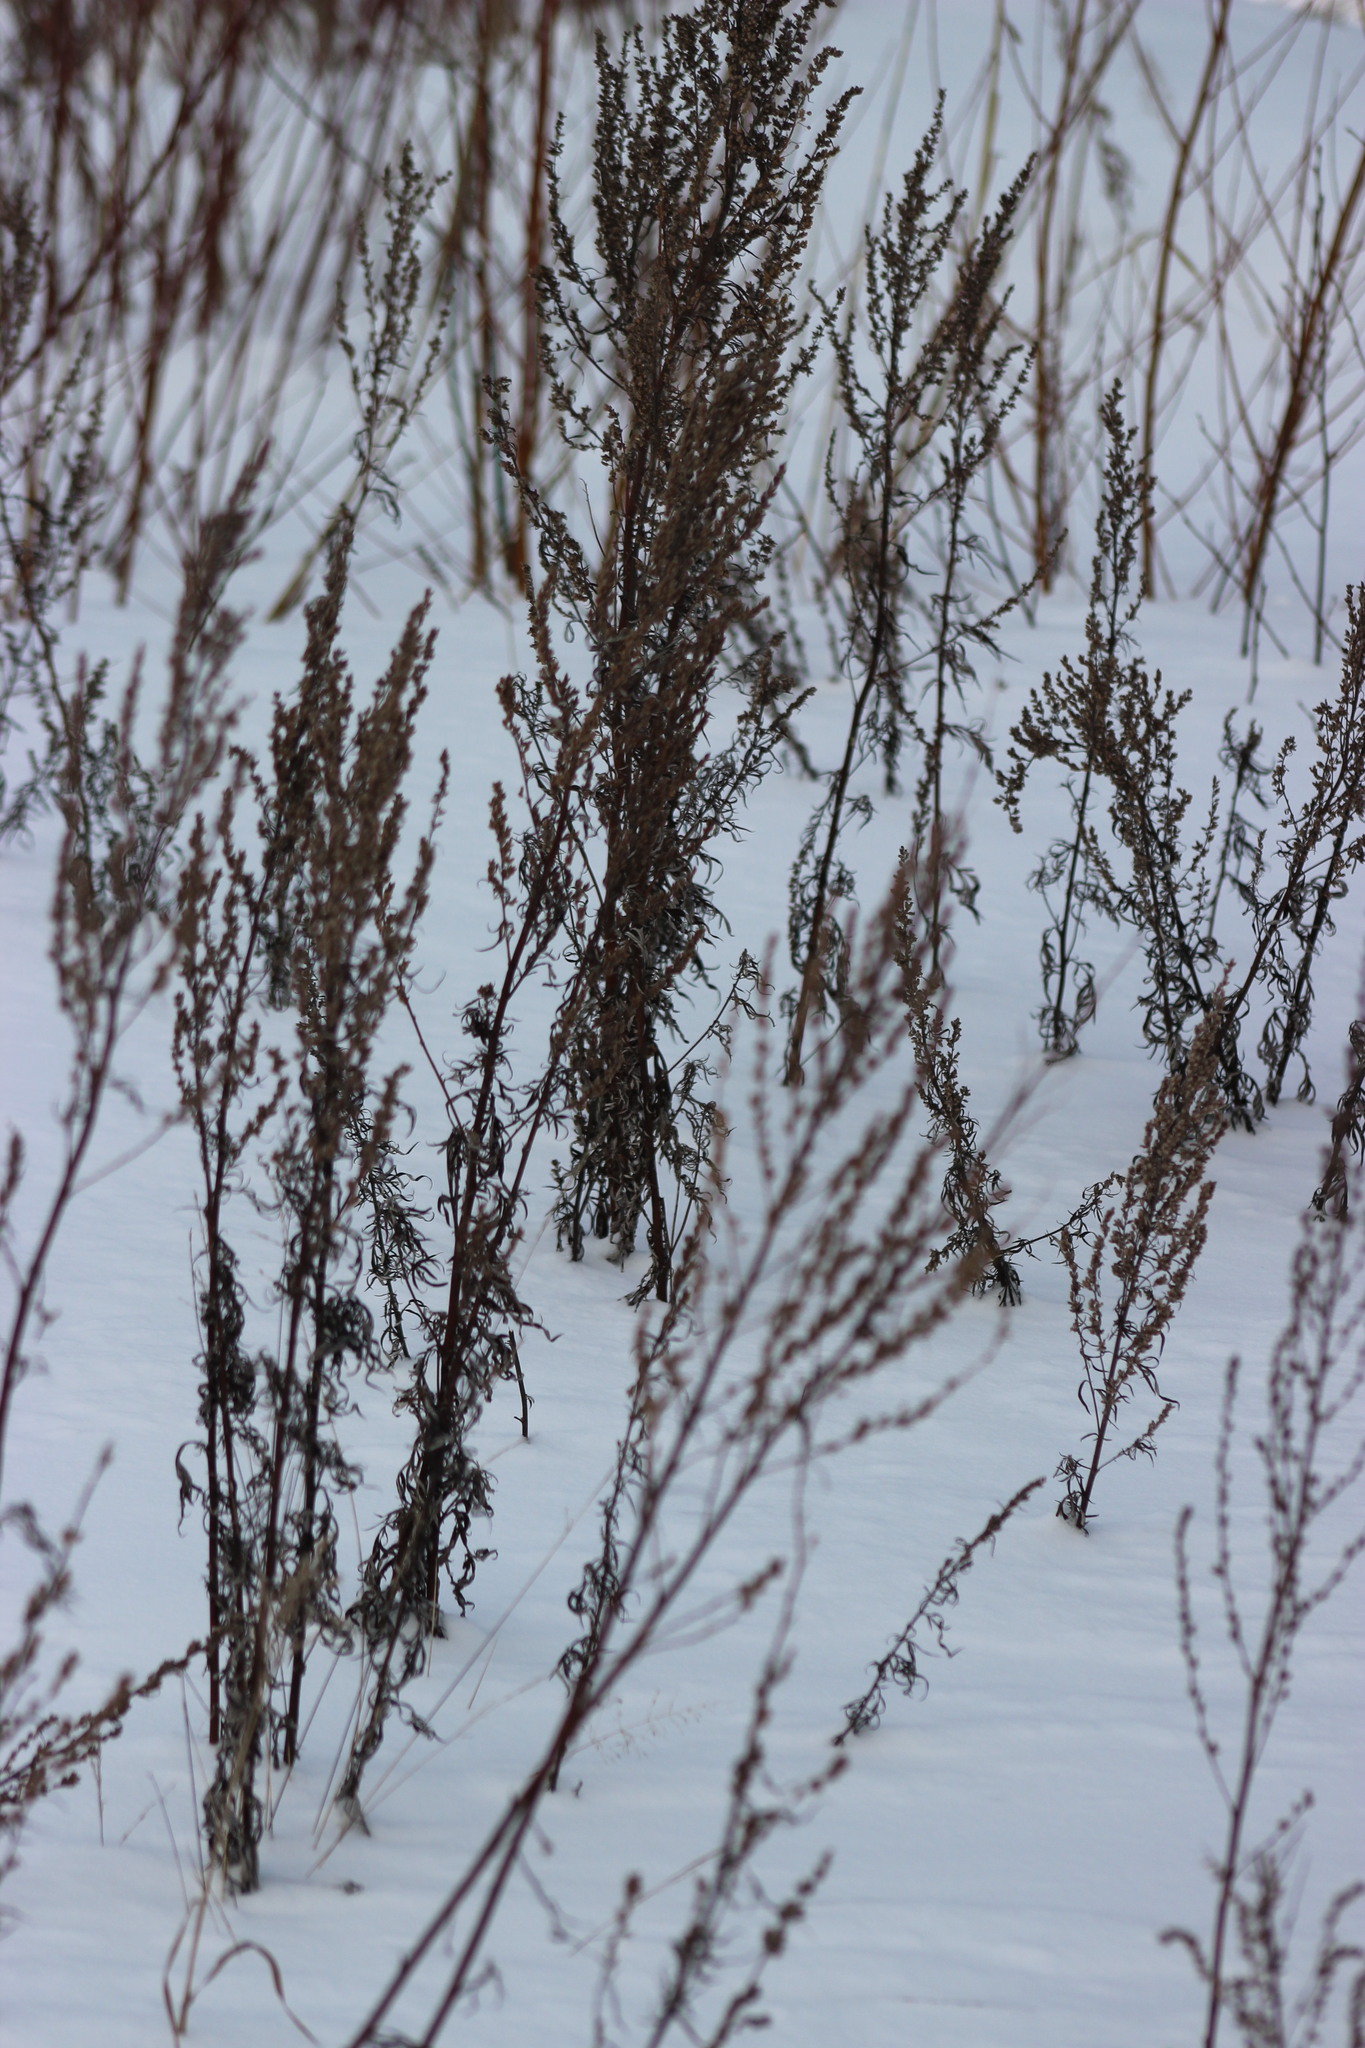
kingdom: Plantae
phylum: Tracheophyta
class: Magnoliopsida
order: Asterales
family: Asteraceae
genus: Artemisia
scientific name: Artemisia vulgaris
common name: Mugwort
